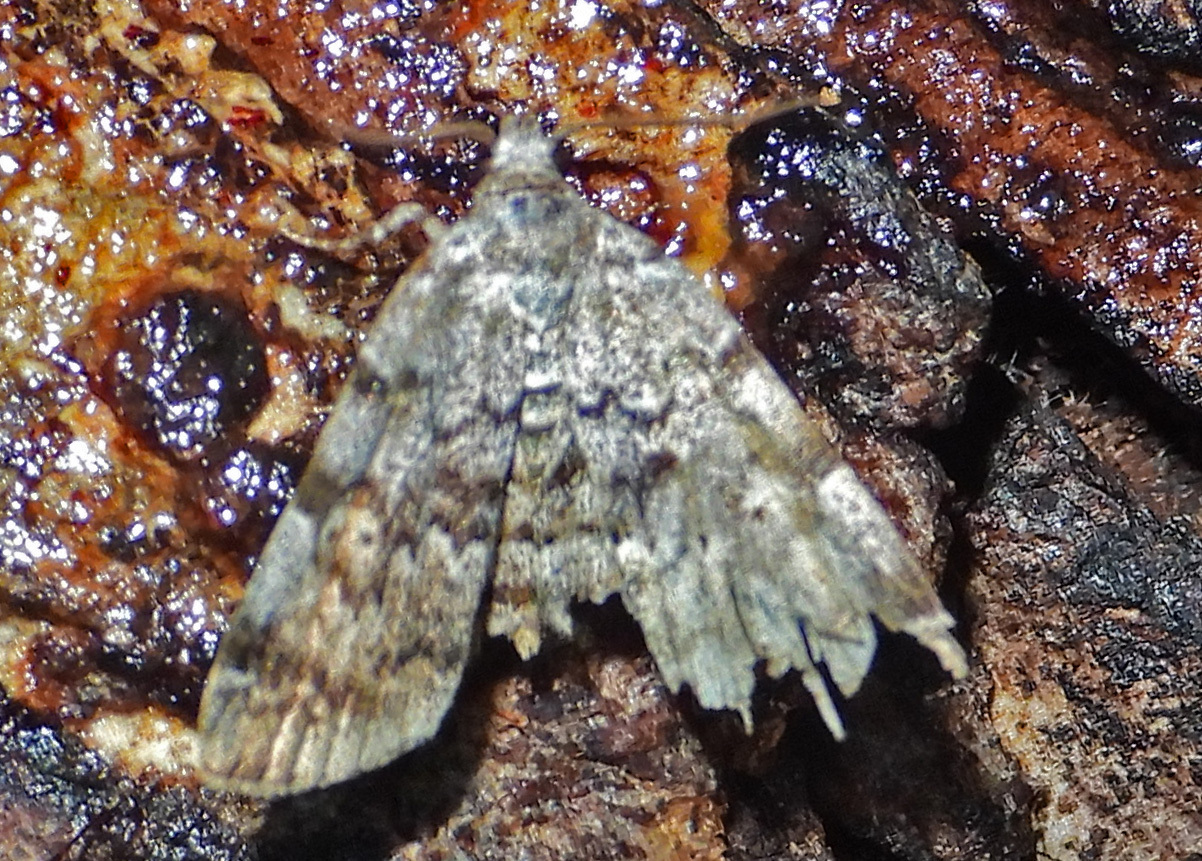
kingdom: Animalia
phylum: Arthropoda
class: Insecta
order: Lepidoptera
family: Erebidae
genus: Idia
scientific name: Idia americalis
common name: American idia moth
